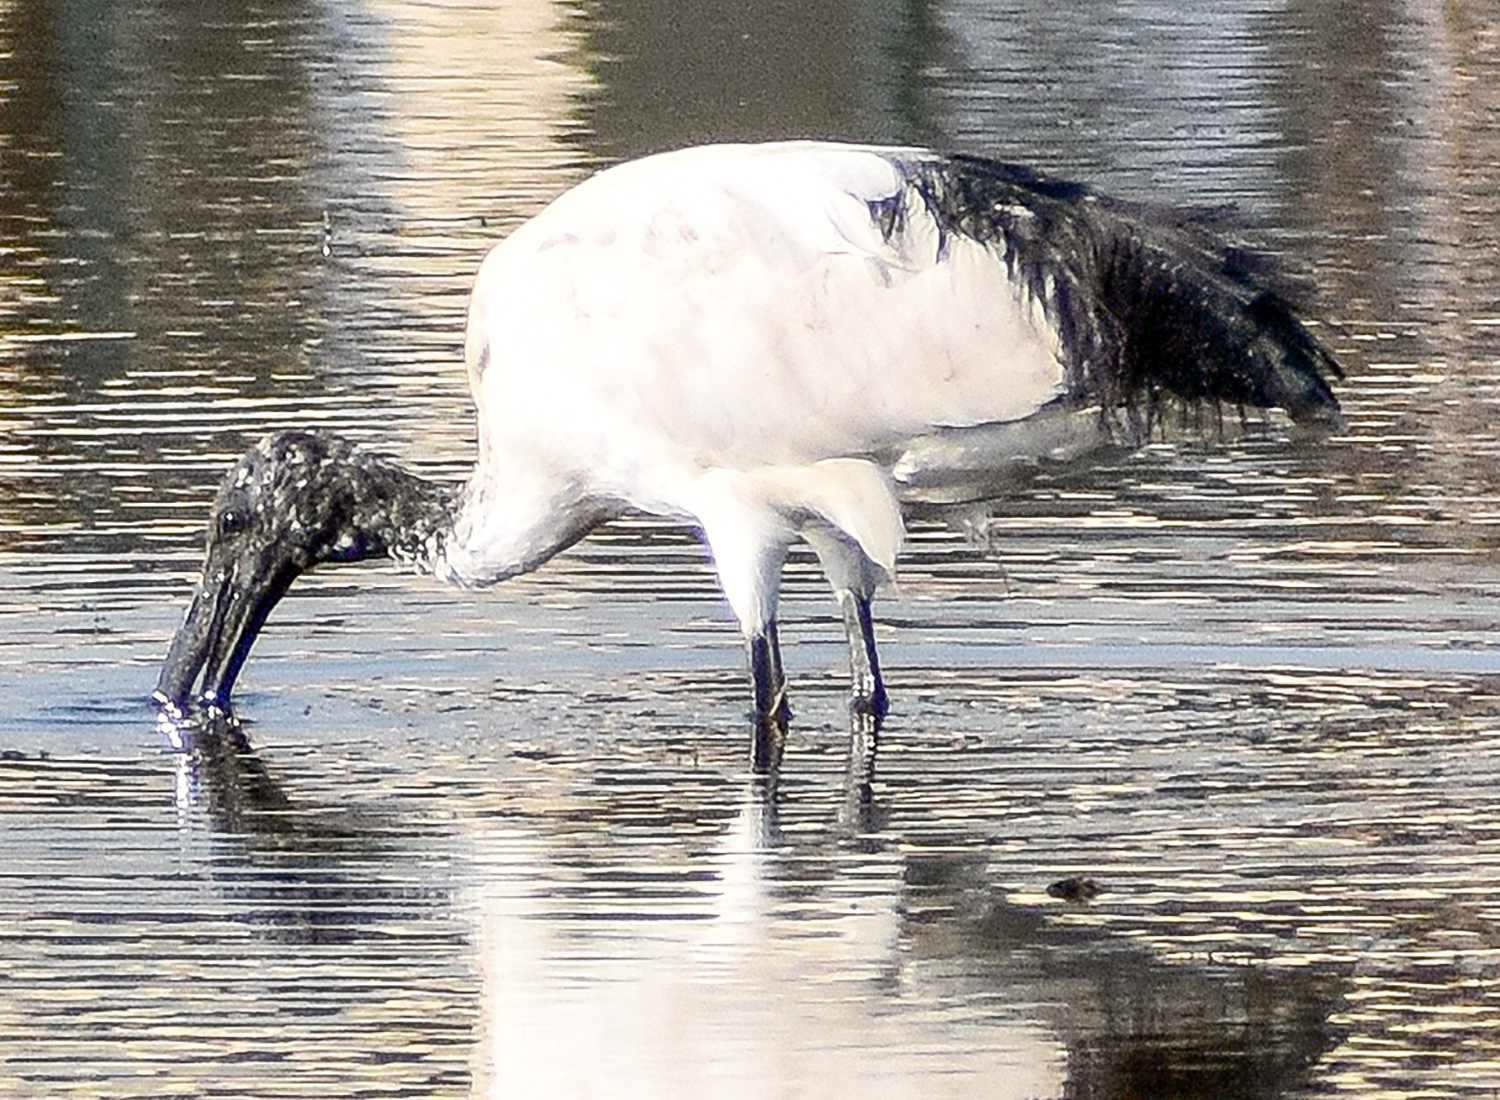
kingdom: Animalia
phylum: Chordata
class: Aves
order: Pelecaniformes
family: Threskiornithidae
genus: Threskiornis
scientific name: Threskiornis aethiopicus
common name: Sacred ibis
